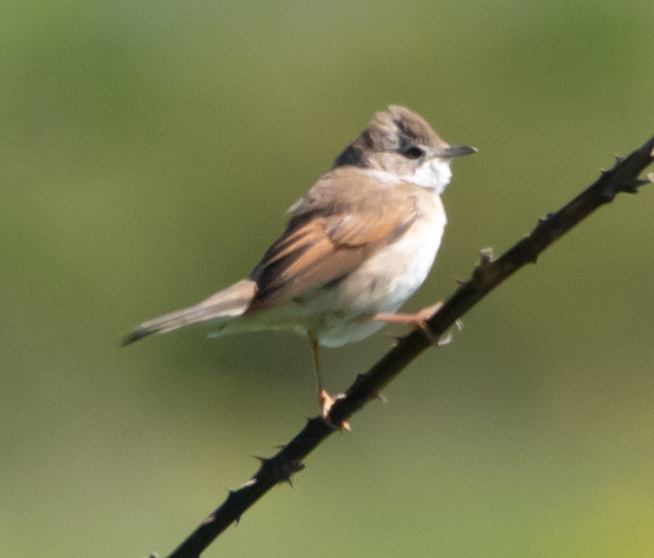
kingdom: Animalia
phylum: Chordata
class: Aves
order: Passeriformes
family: Sylviidae
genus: Sylvia
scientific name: Sylvia communis
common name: Common whitethroat
